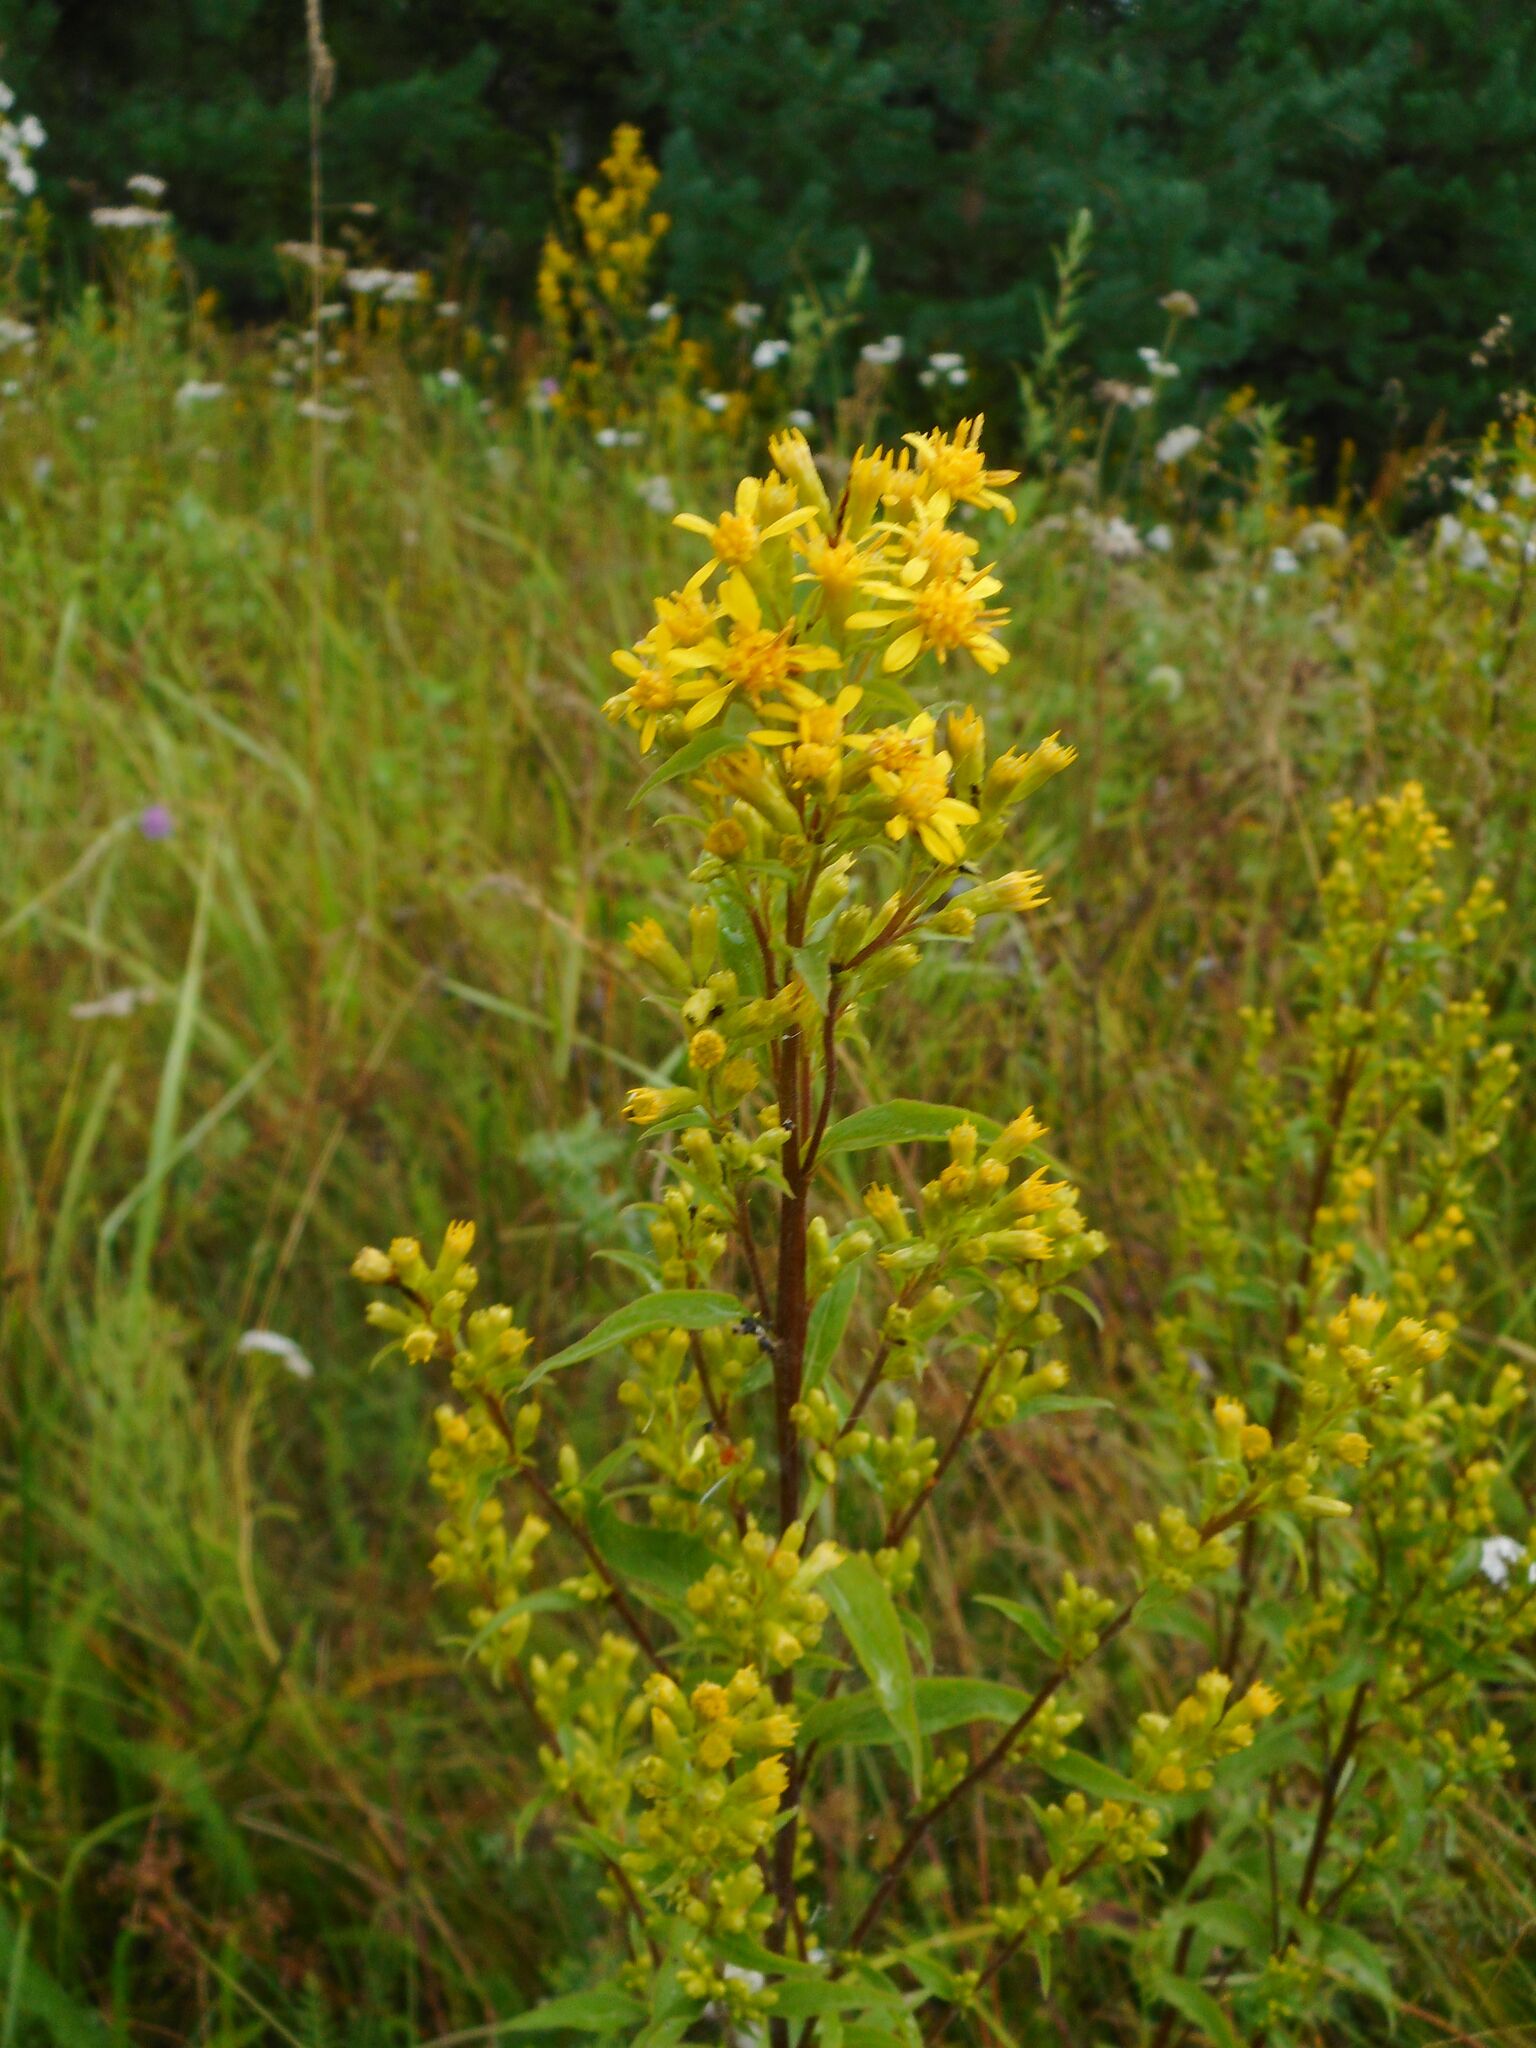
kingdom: Plantae
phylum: Tracheophyta
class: Magnoliopsida
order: Asterales
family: Asteraceae
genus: Solidago
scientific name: Solidago virgaurea
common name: Goldenrod
